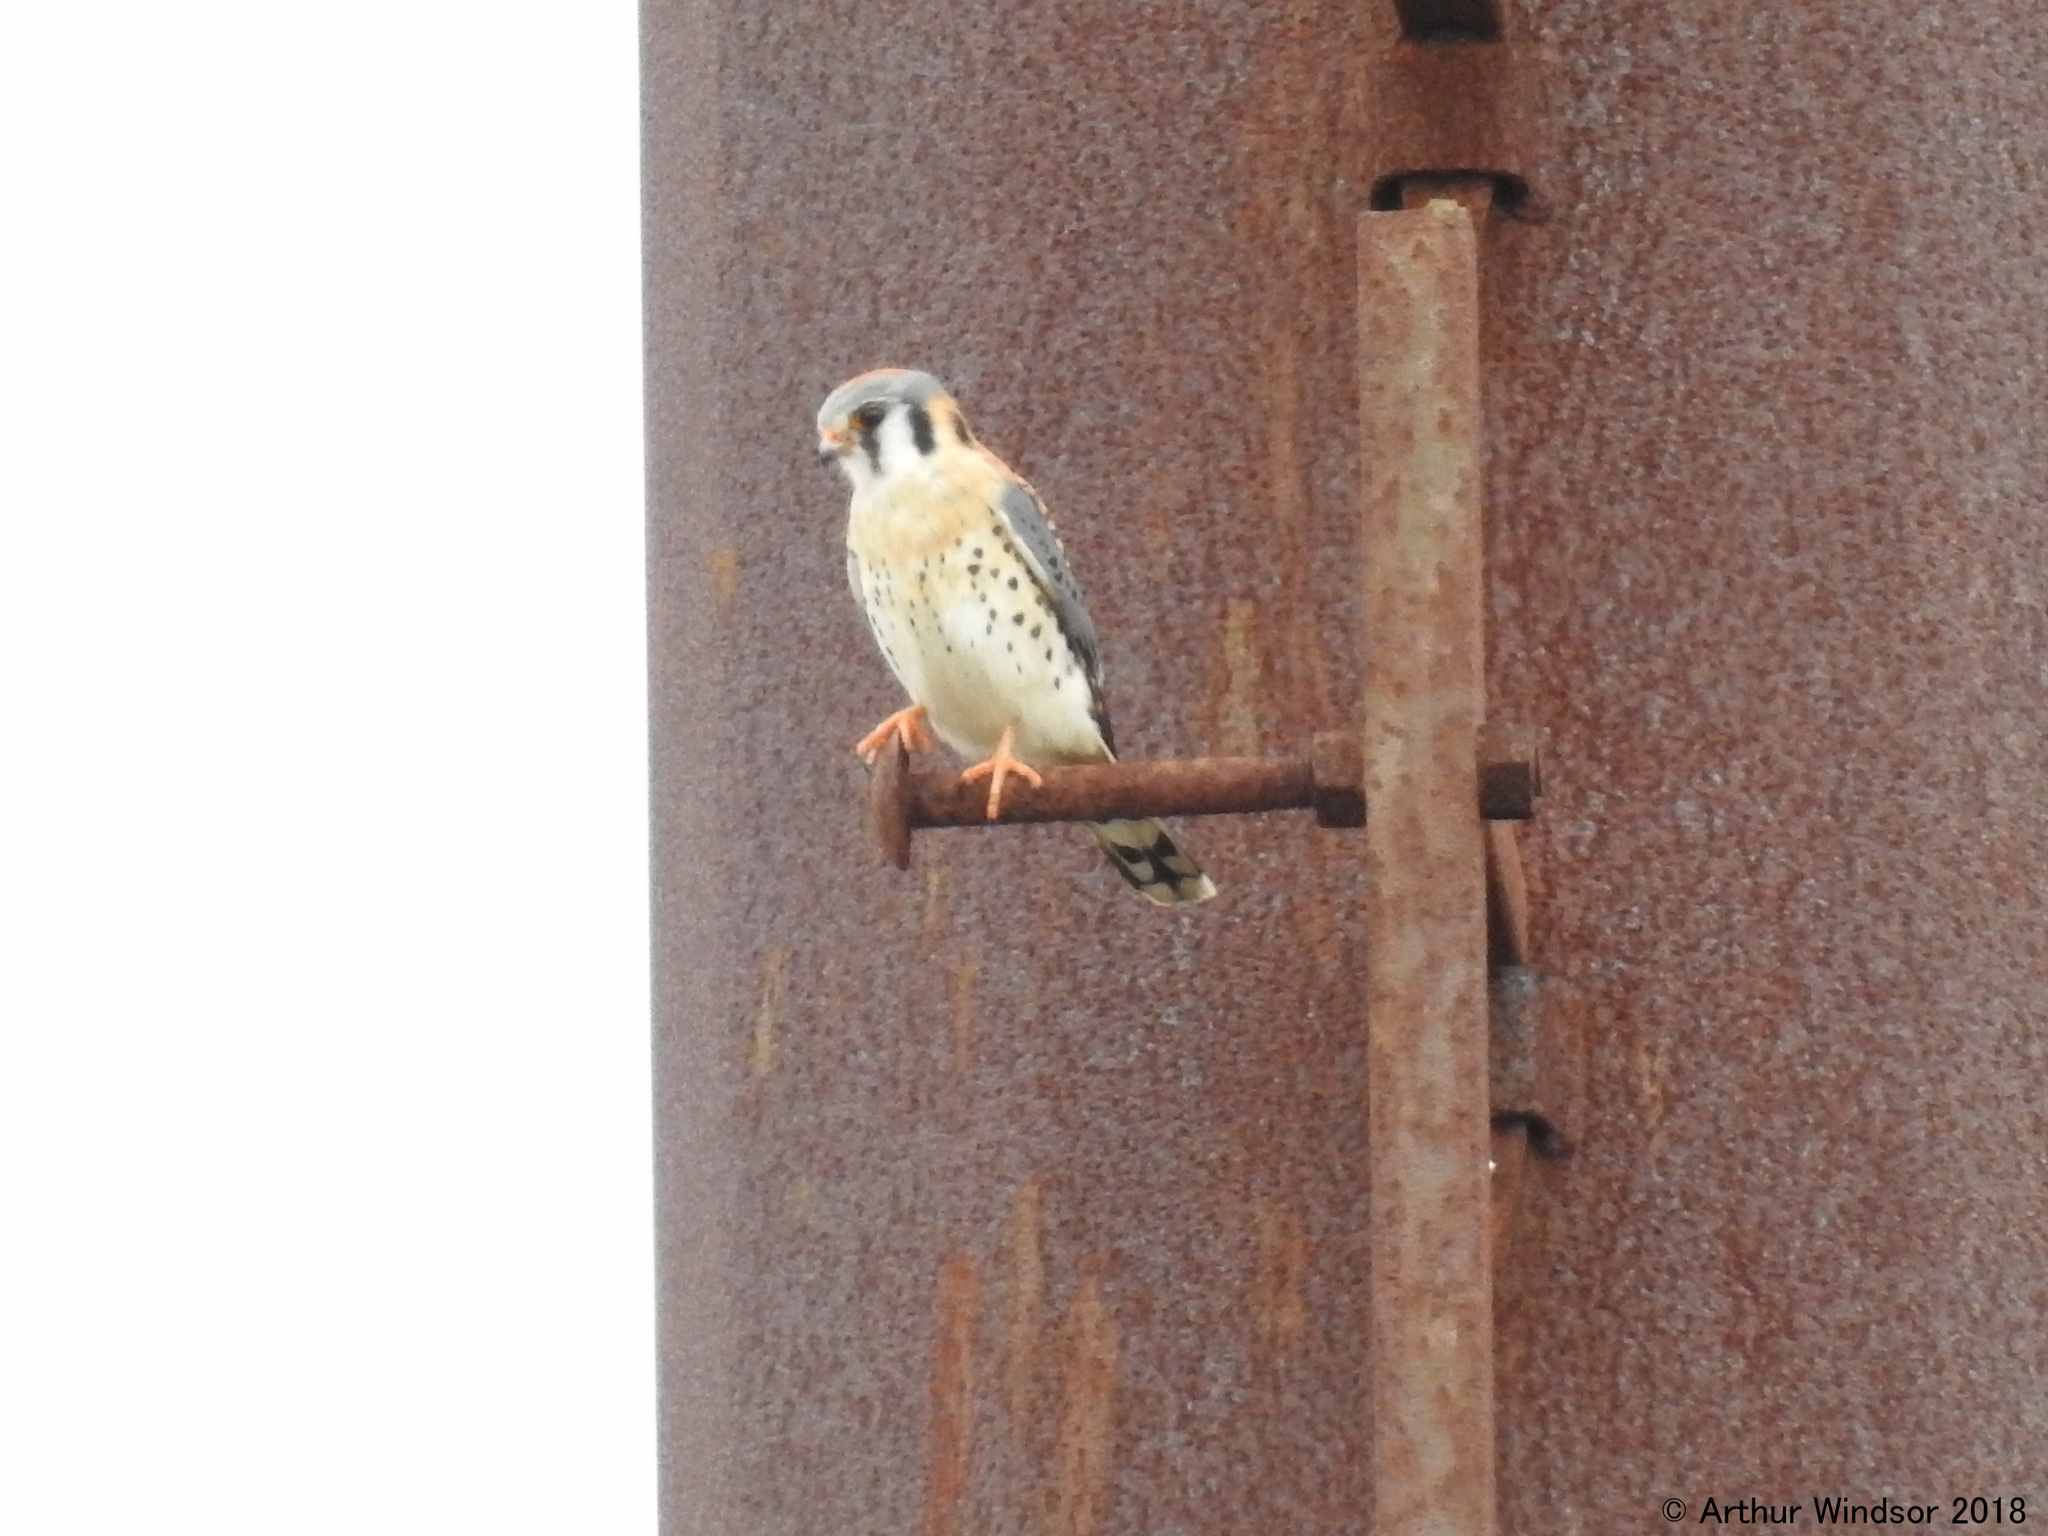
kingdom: Animalia
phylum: Chordata
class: Aves
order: Falconiformes
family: Falconidae
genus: Falco
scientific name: Falco sparverius
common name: American kestrel
